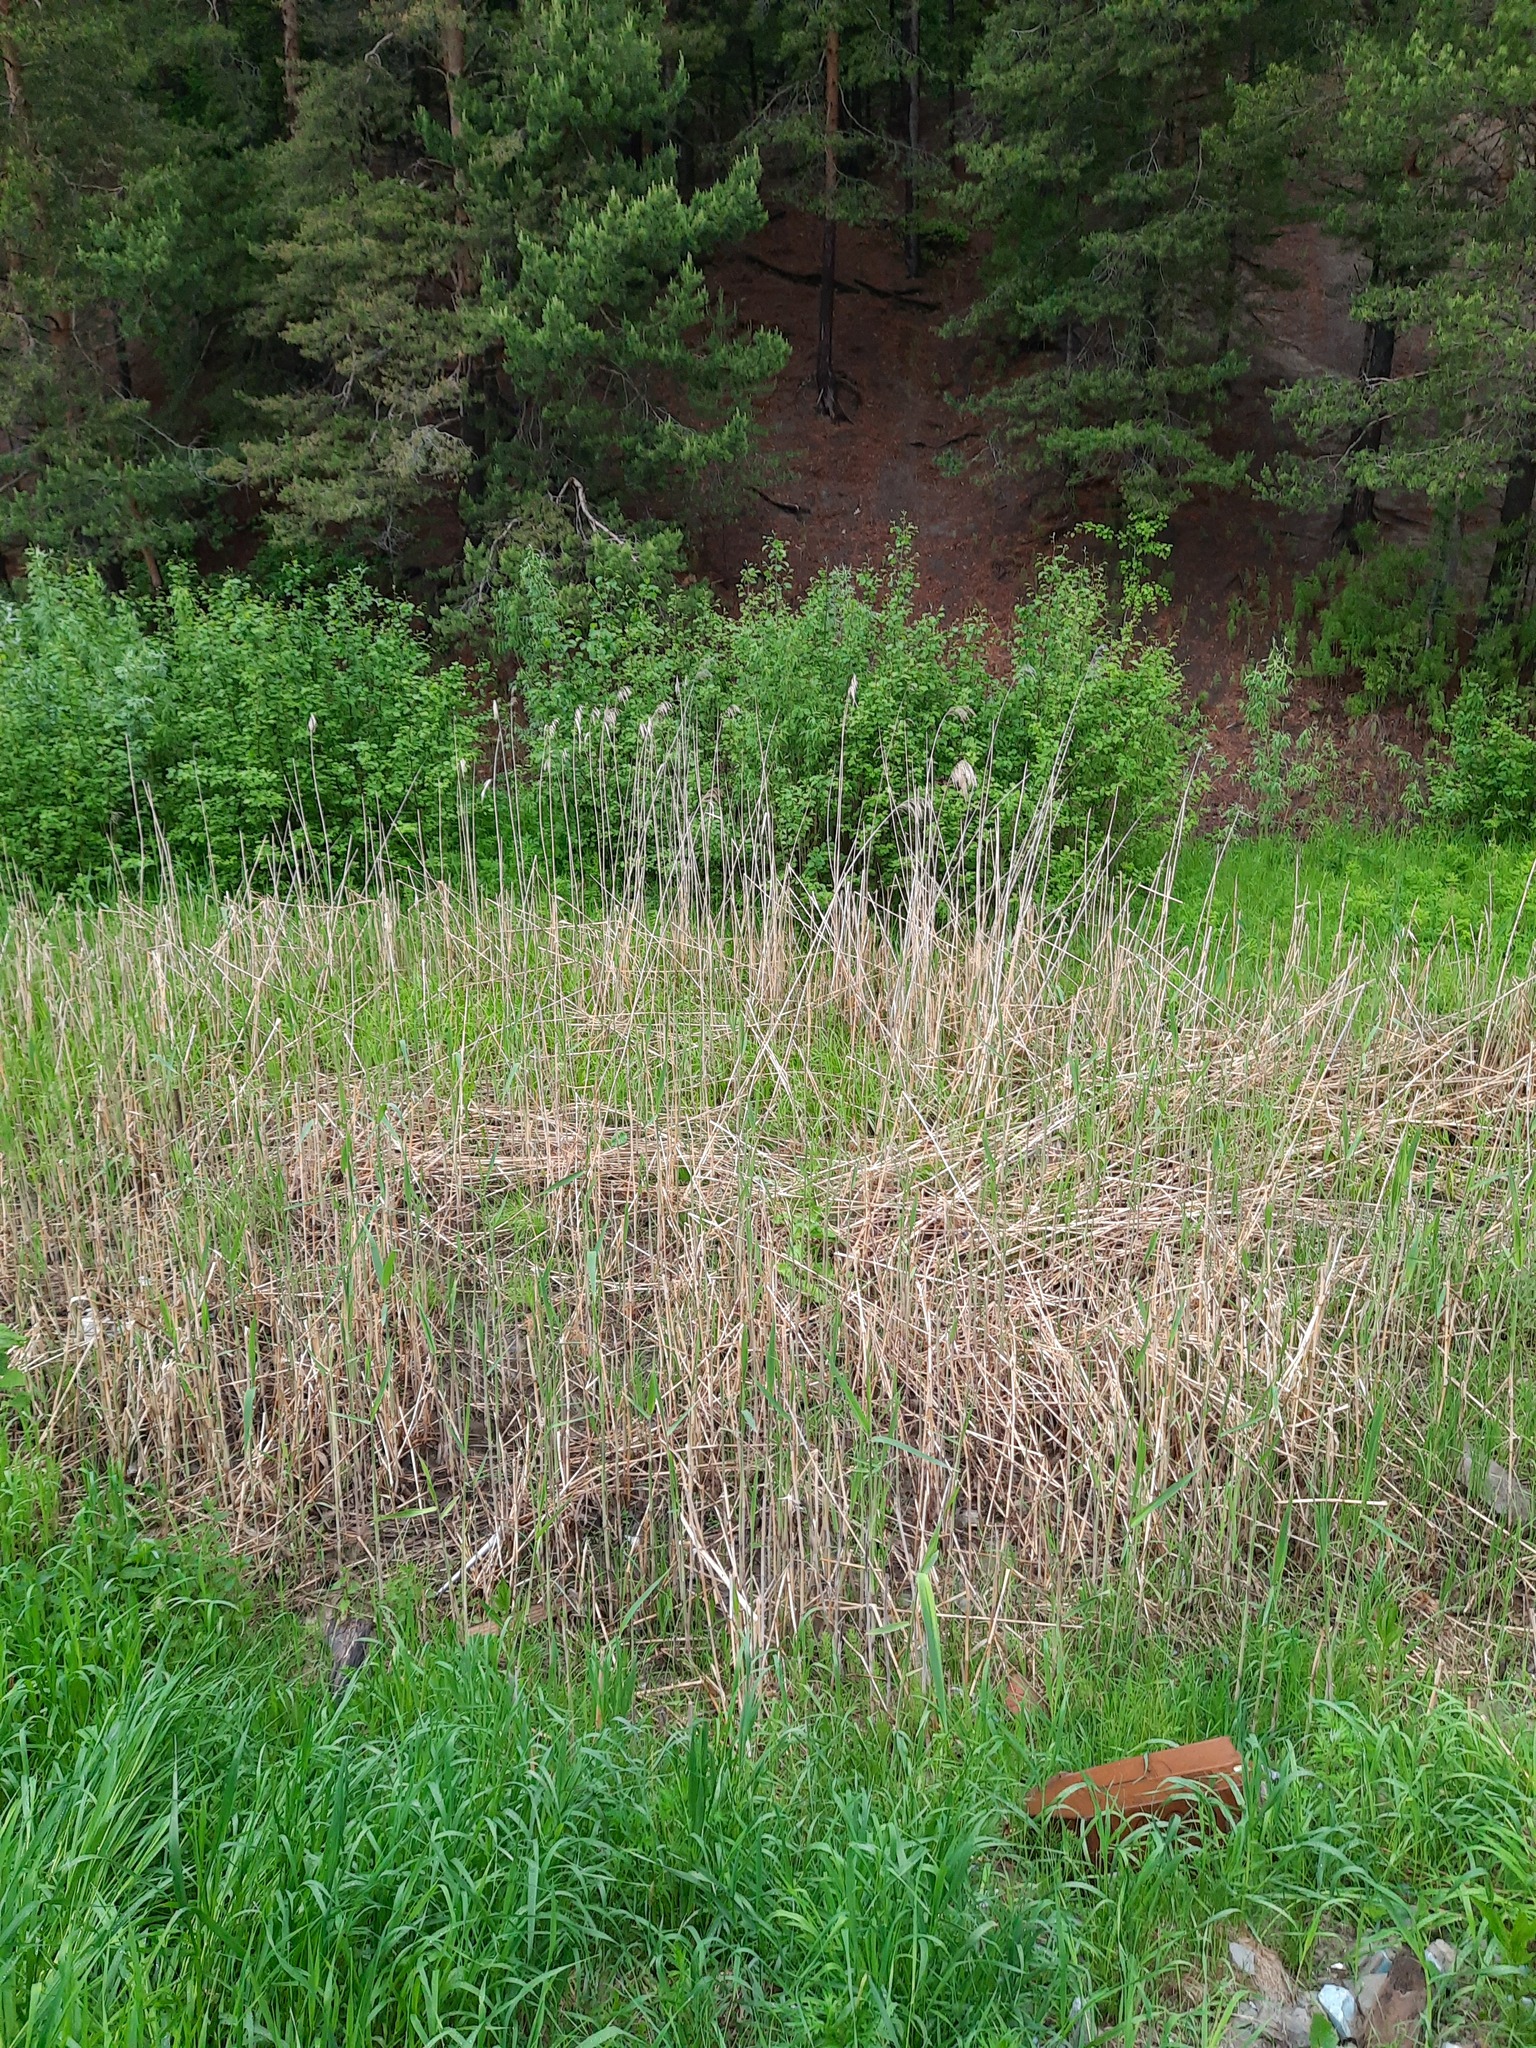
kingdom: Plantae
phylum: Tracheophyta
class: Liliopsida
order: Poales
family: Poaceae
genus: Phragmites
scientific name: Phragmites australis
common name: Common reed
